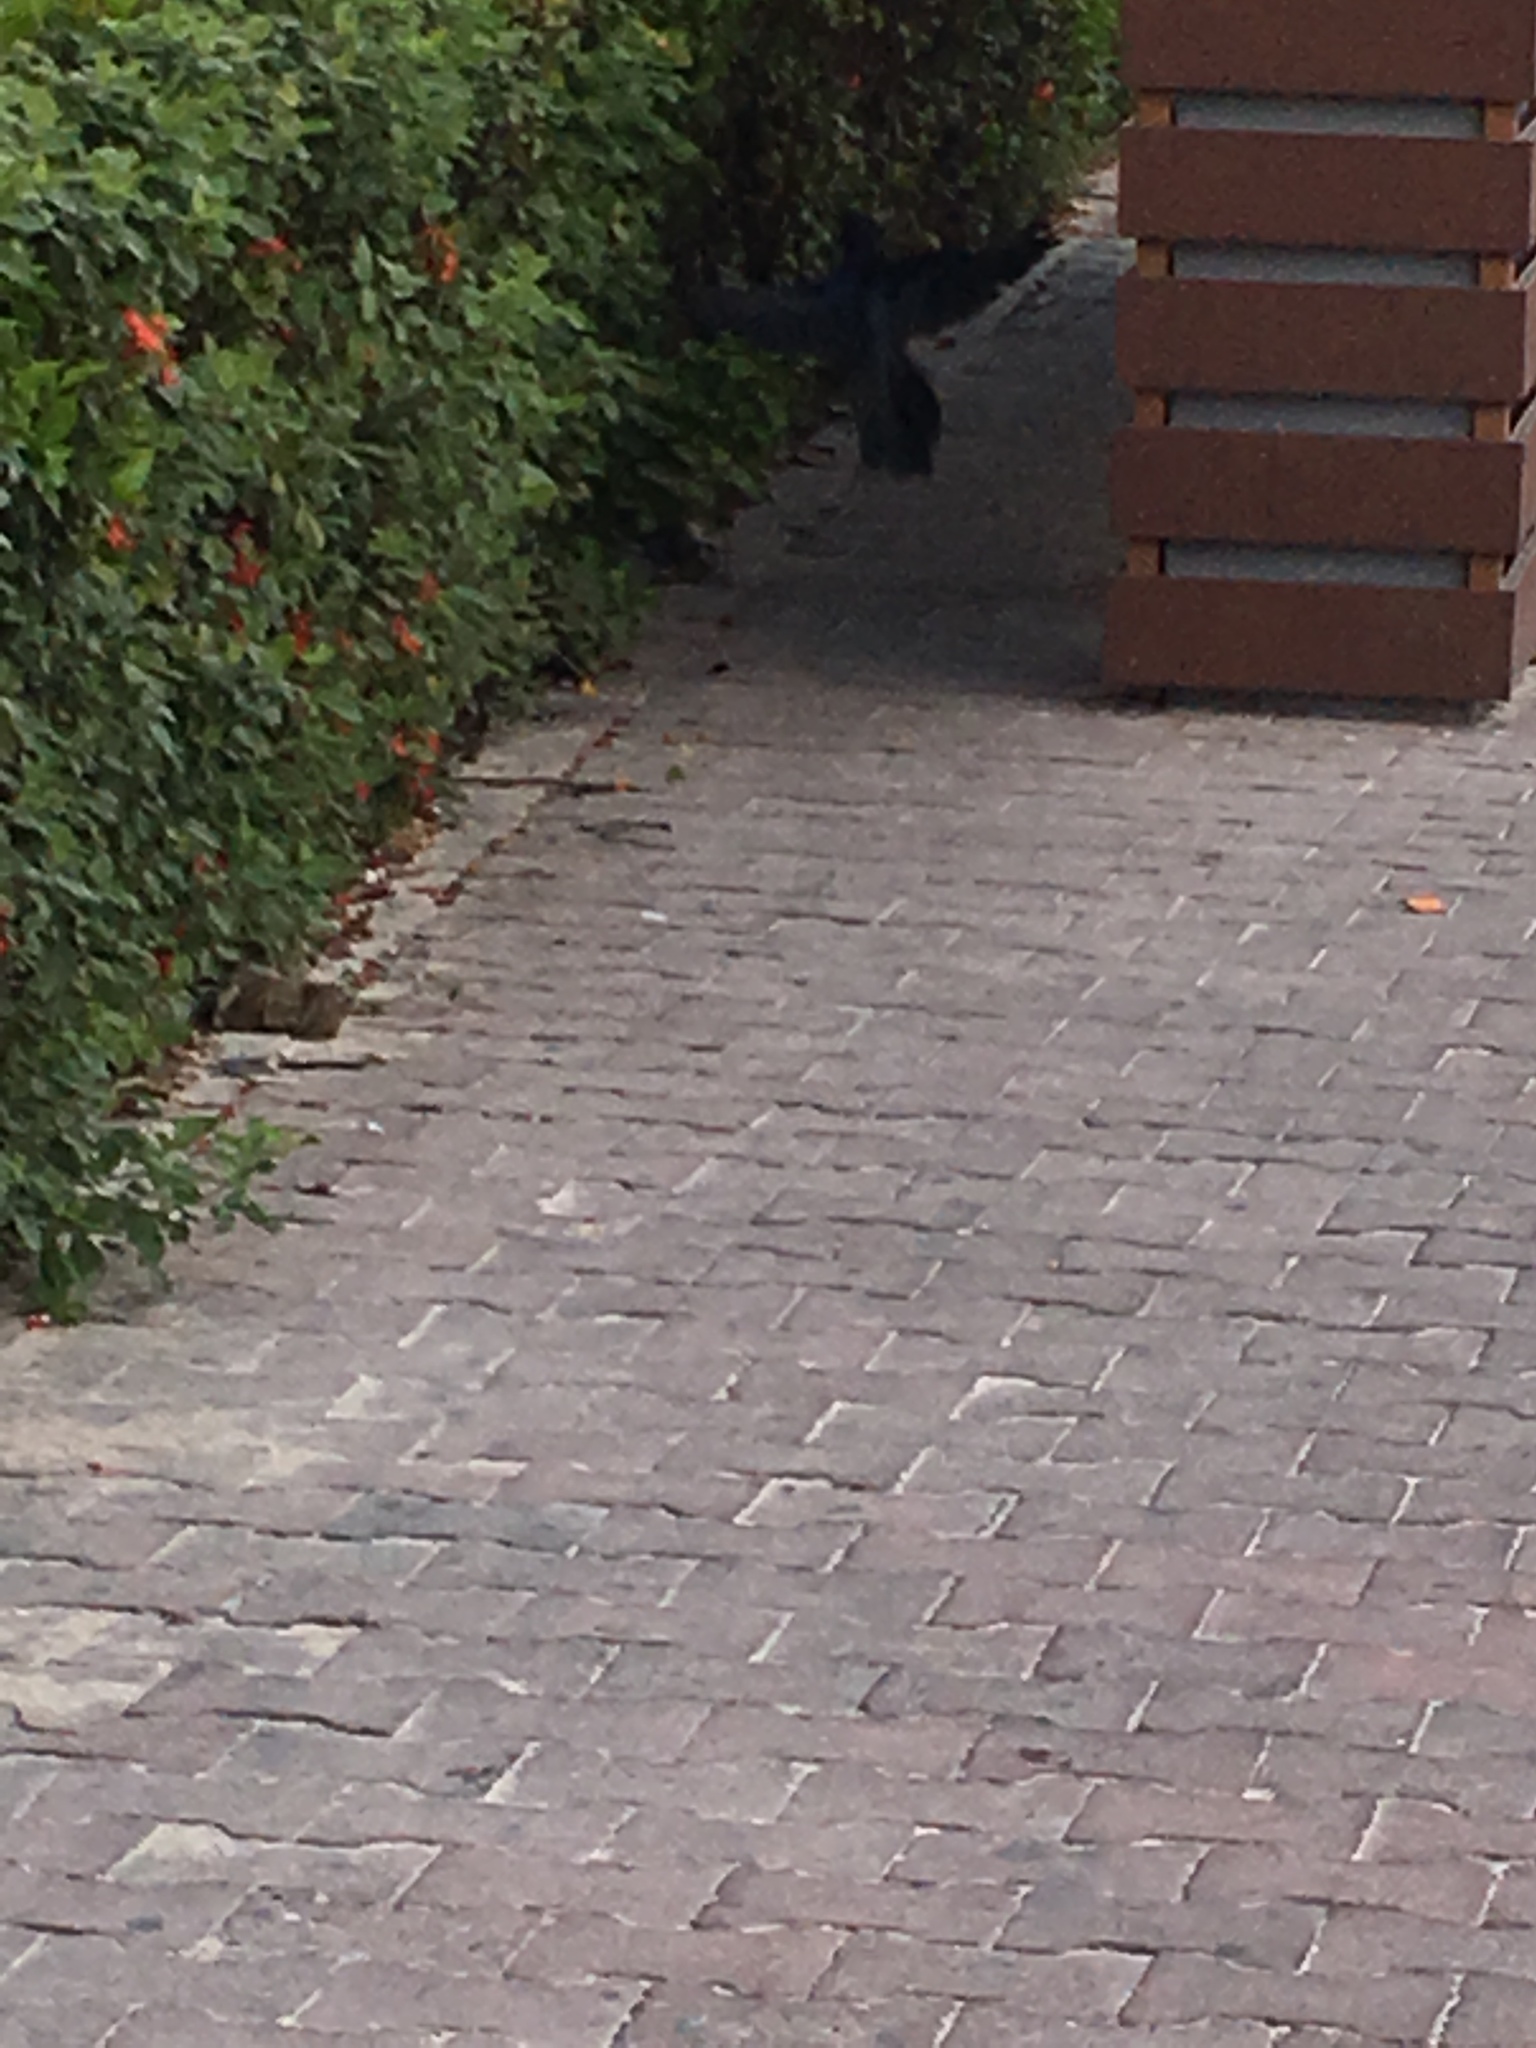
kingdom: Animalia
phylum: Chordata
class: Aves
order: Passeriformes
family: Icteridae
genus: Quiscalus
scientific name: Quiscalus mexicanus
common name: Great-tailed grackle
